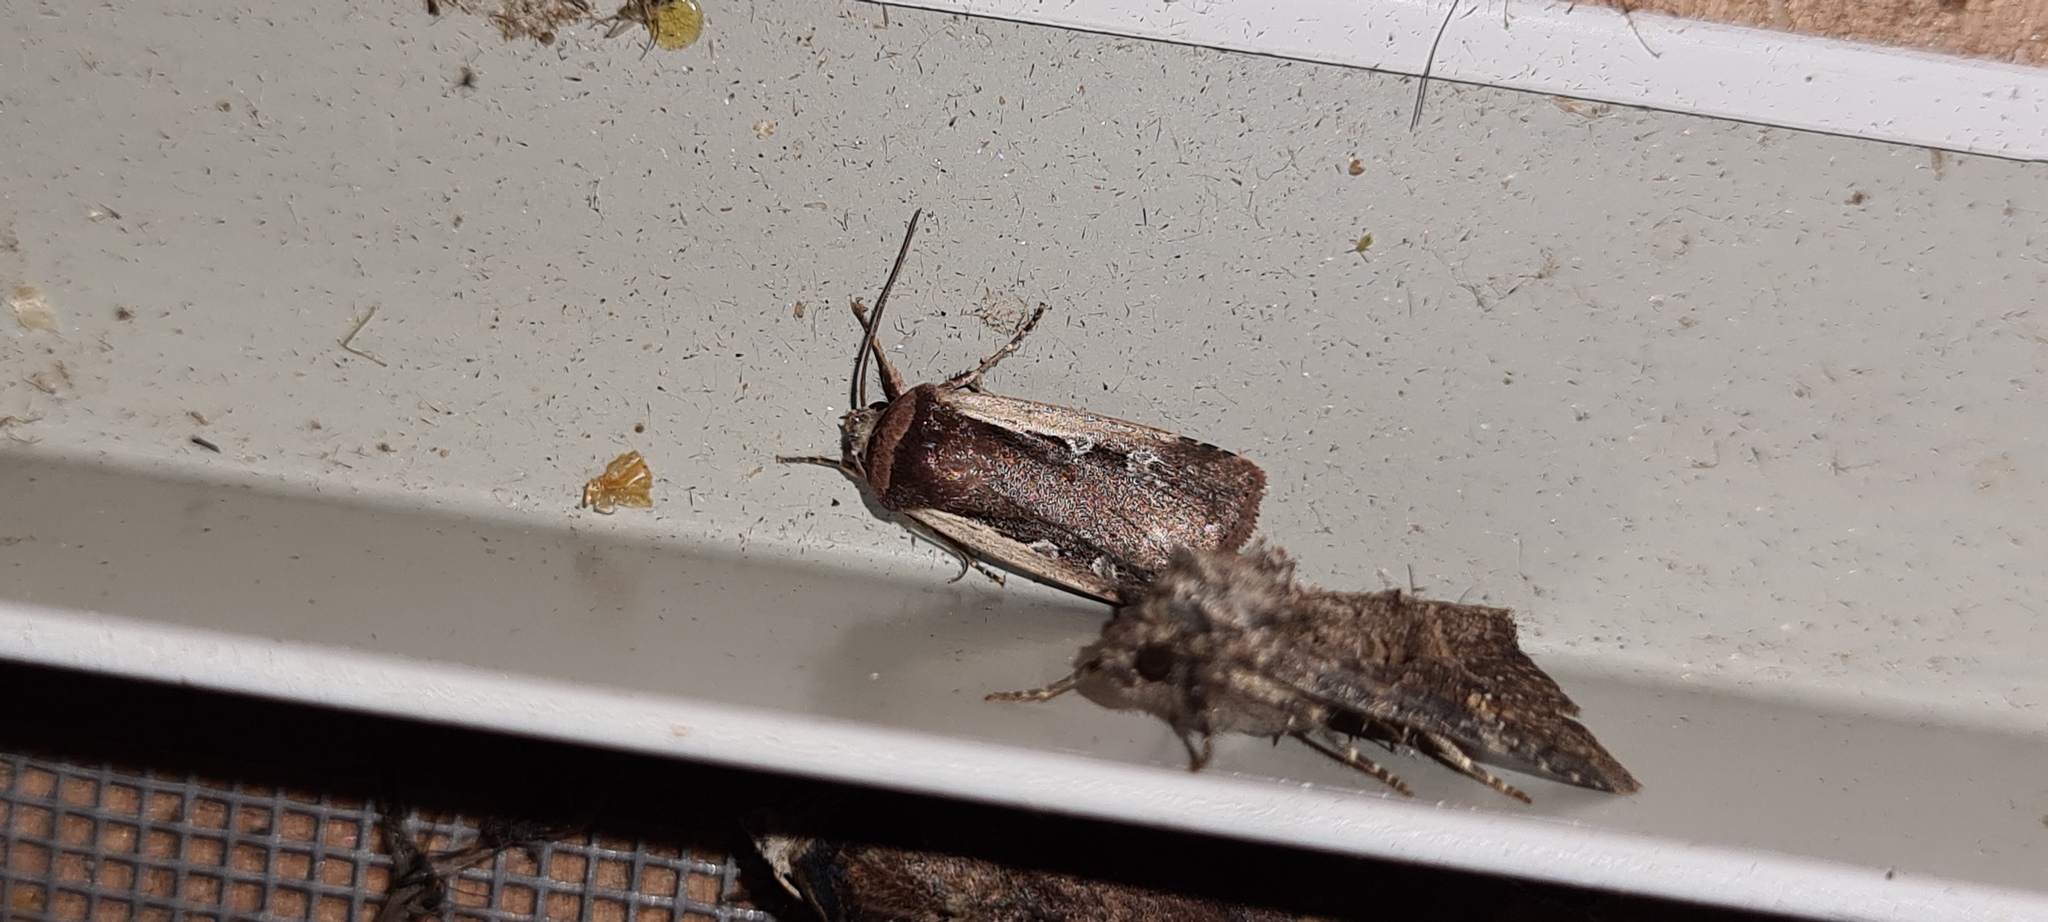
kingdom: Animalia
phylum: Arthropoda
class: Insecta
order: Lepidoptera
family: Noctuidae
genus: Ochropleura
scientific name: Ochropleura plecta
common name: Flame shoulder
